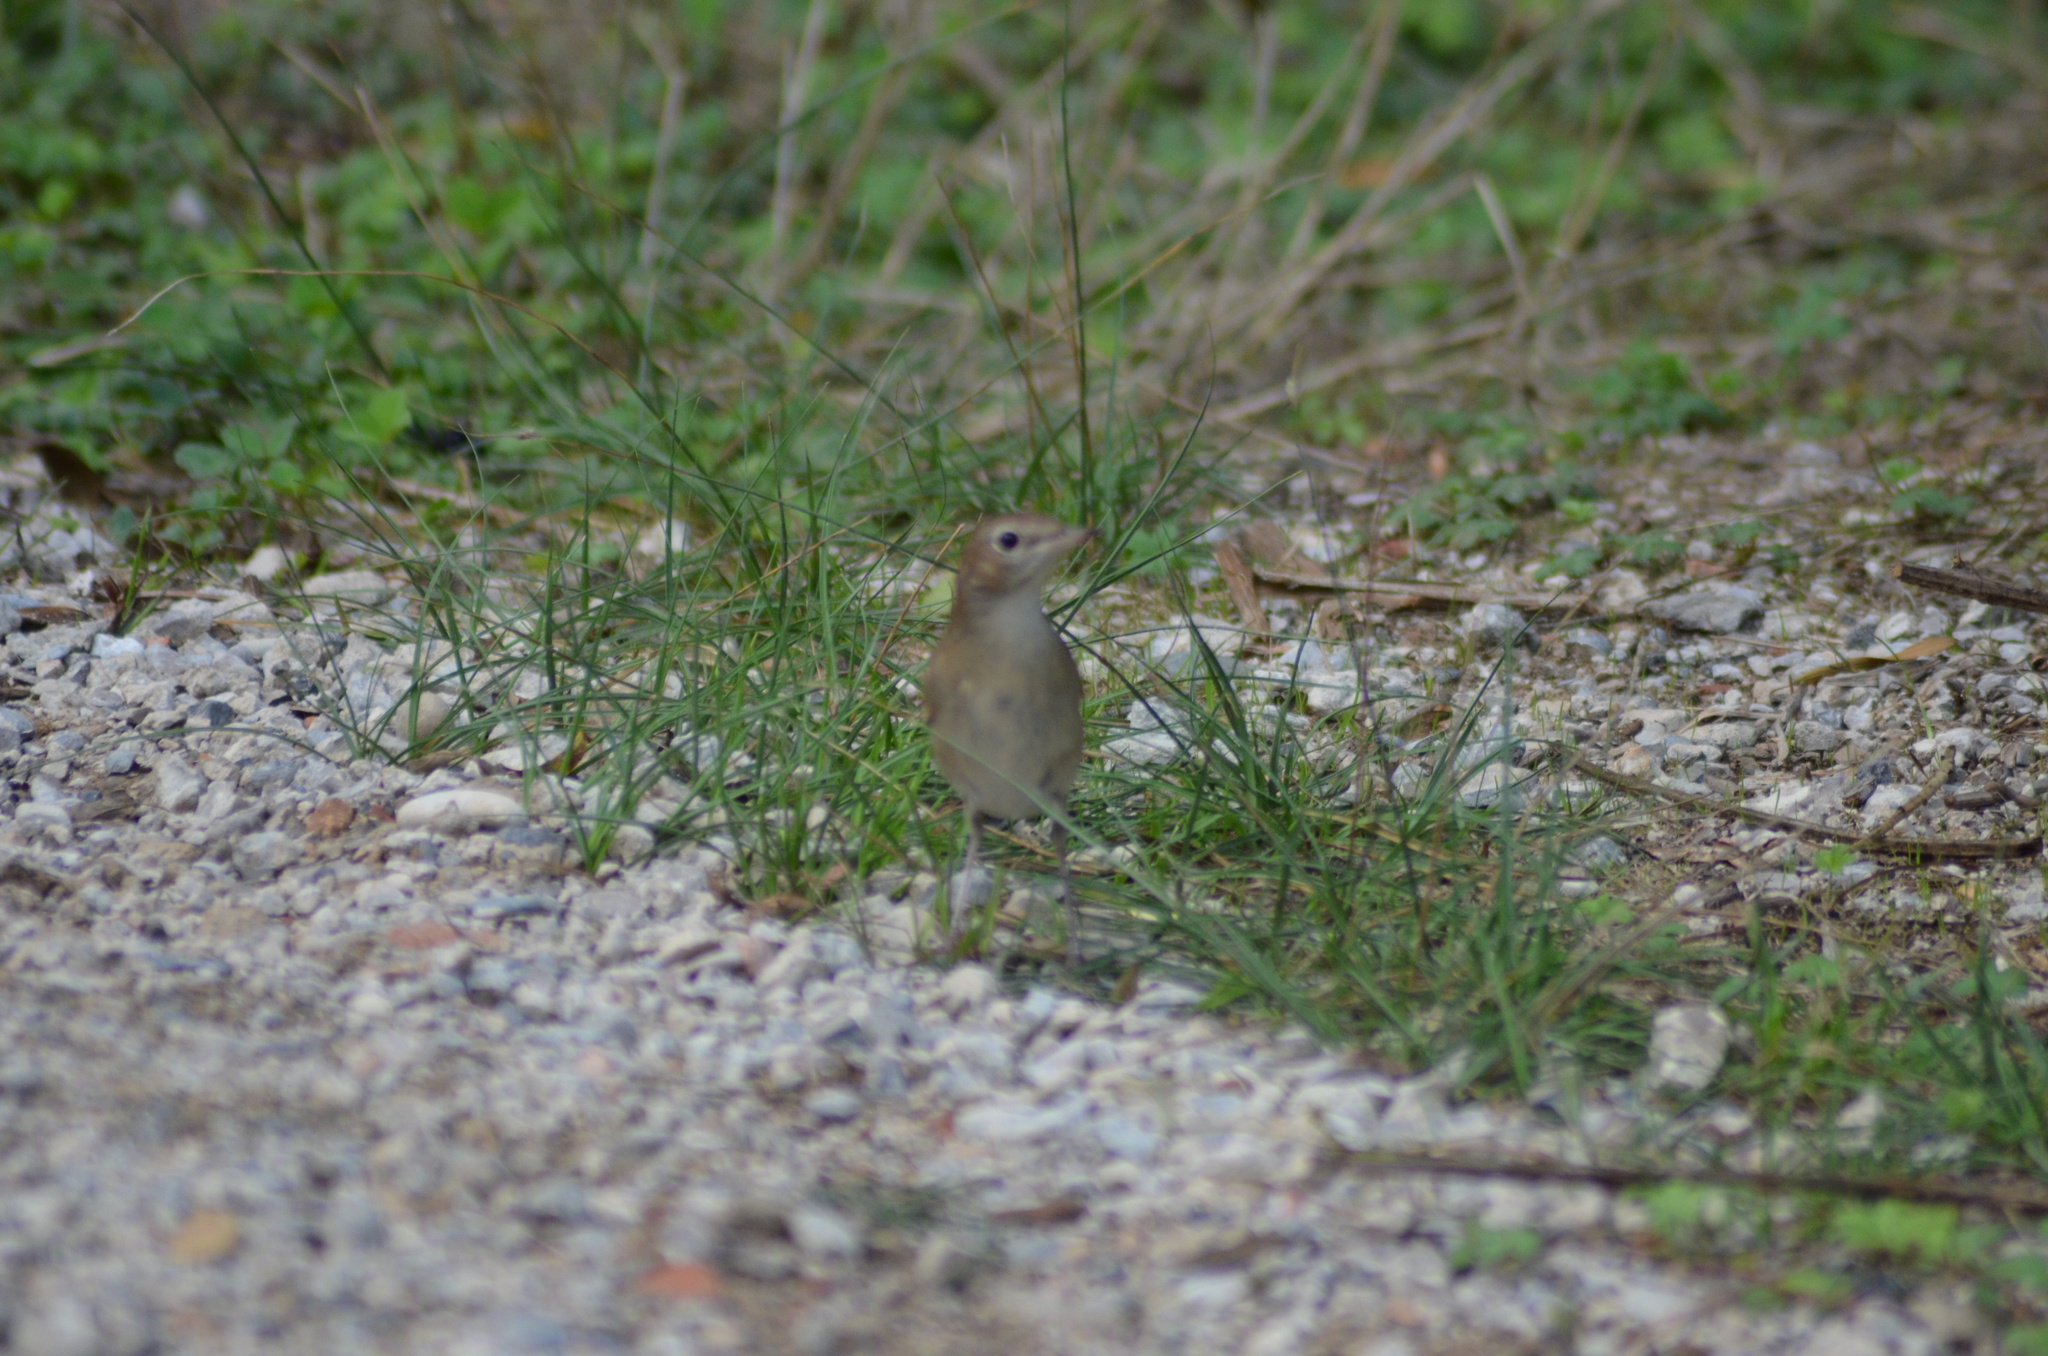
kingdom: Animalia
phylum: Chordata
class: Aves
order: Passeriformes
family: Muscicapidae
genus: Luscinia
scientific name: Luscinia megarhynchos
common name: Common nightingale
